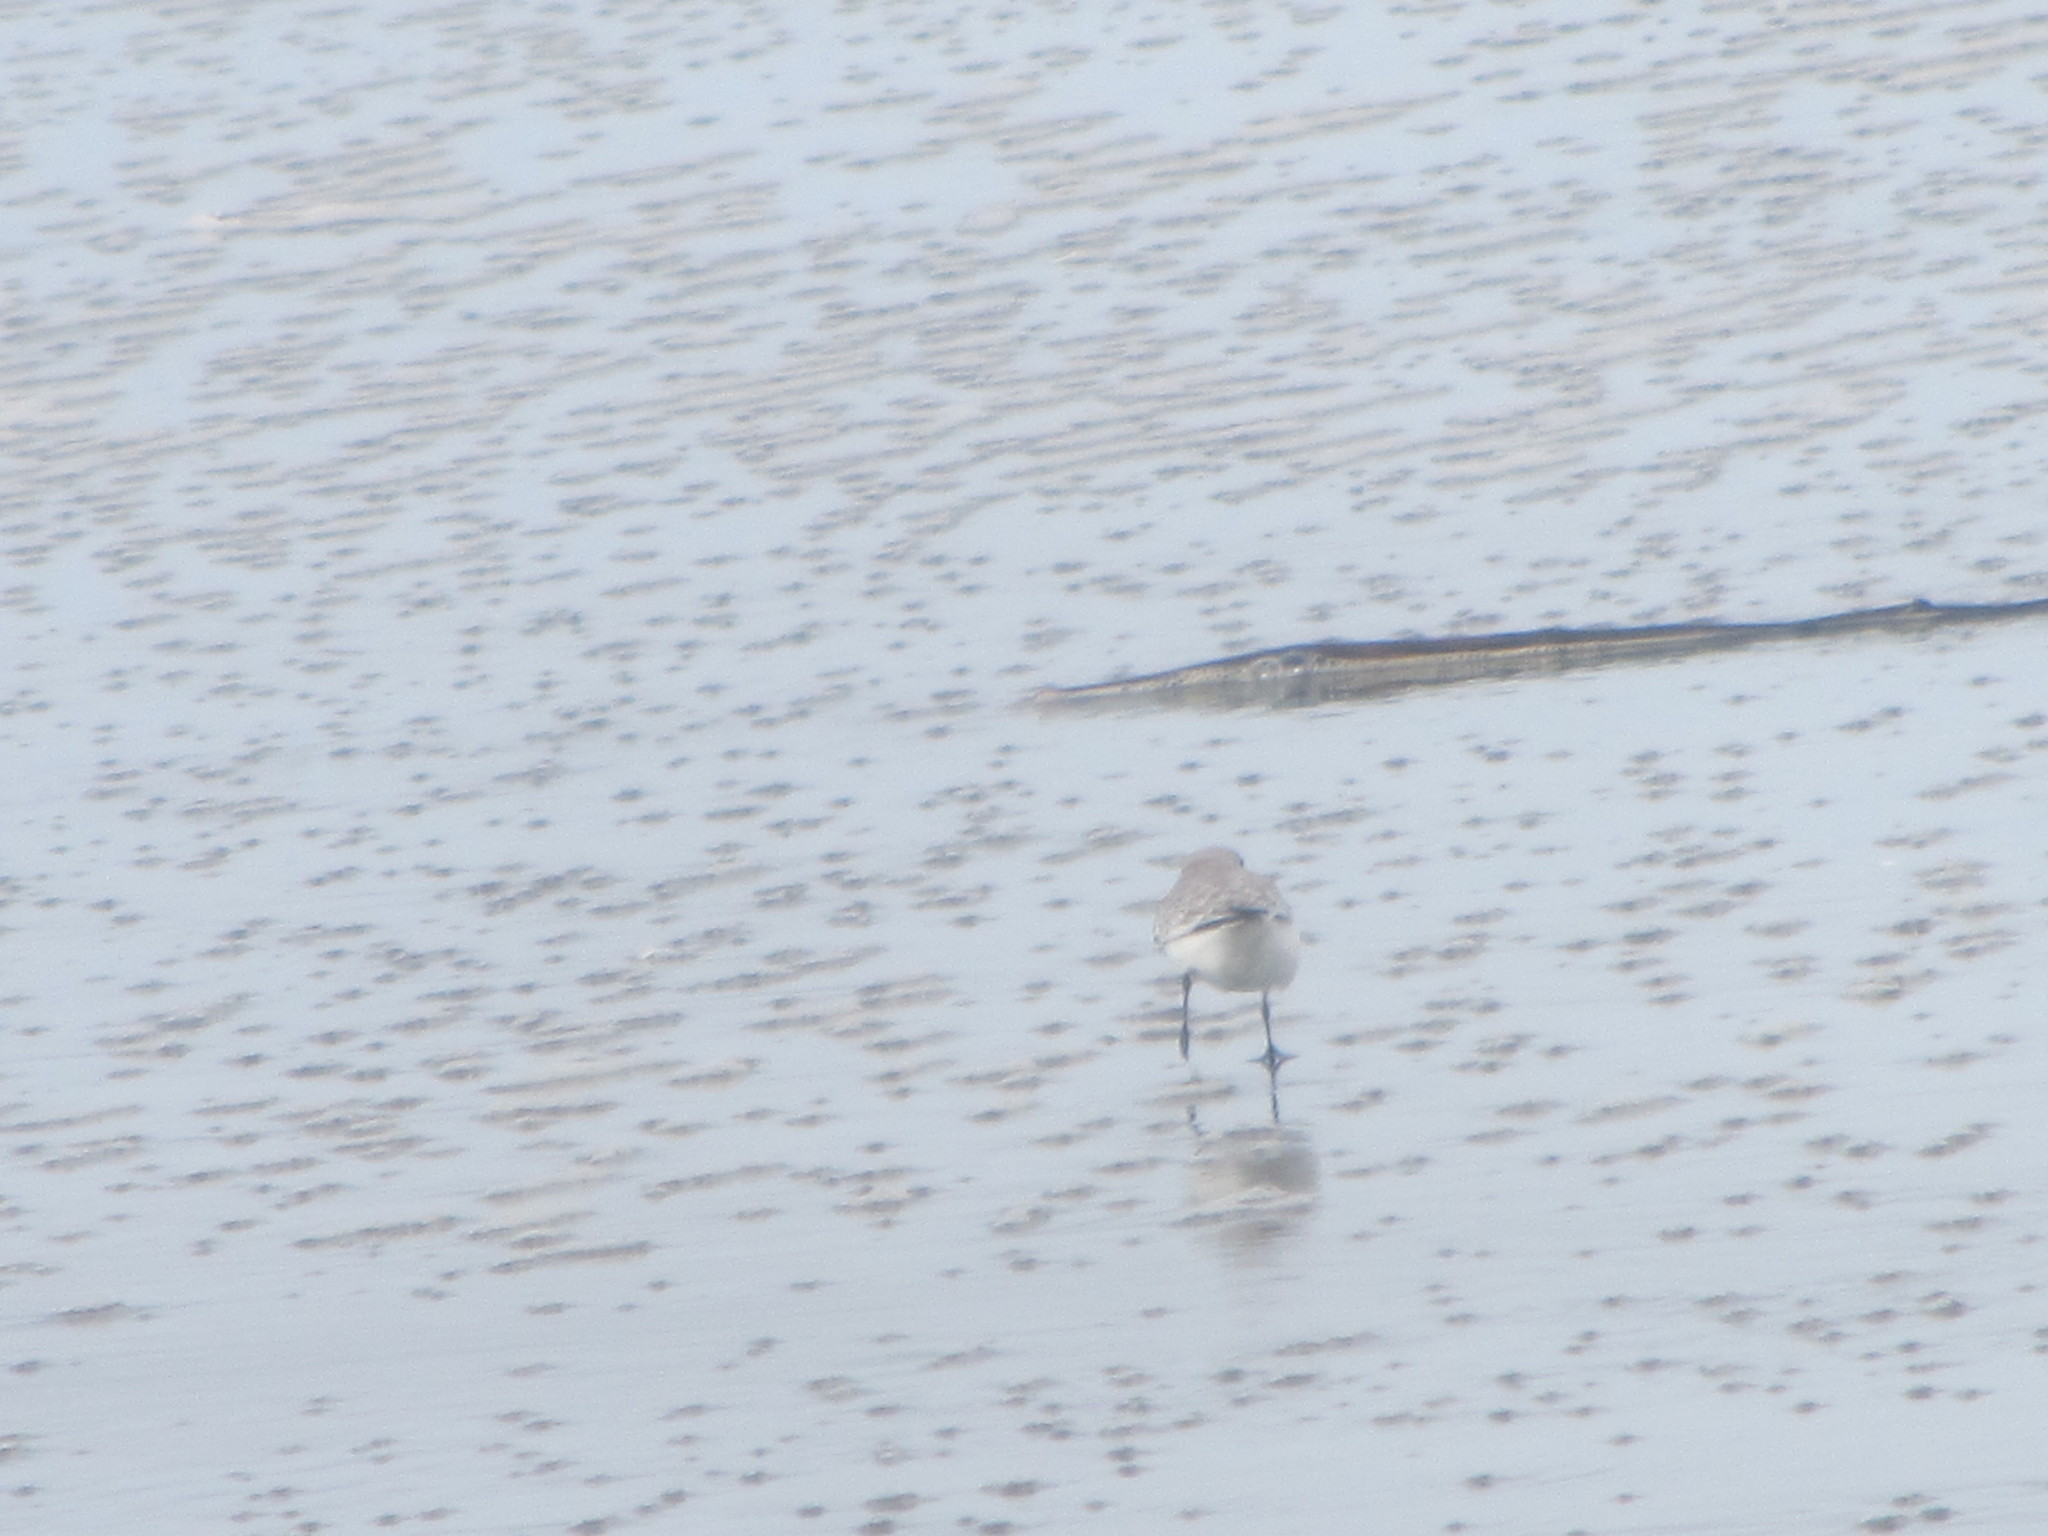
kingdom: Animalia
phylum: Chordata
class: Aves
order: Charadriiformes
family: Scolopacidae
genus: Calidris
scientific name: Calidris alba
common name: Sanderling
